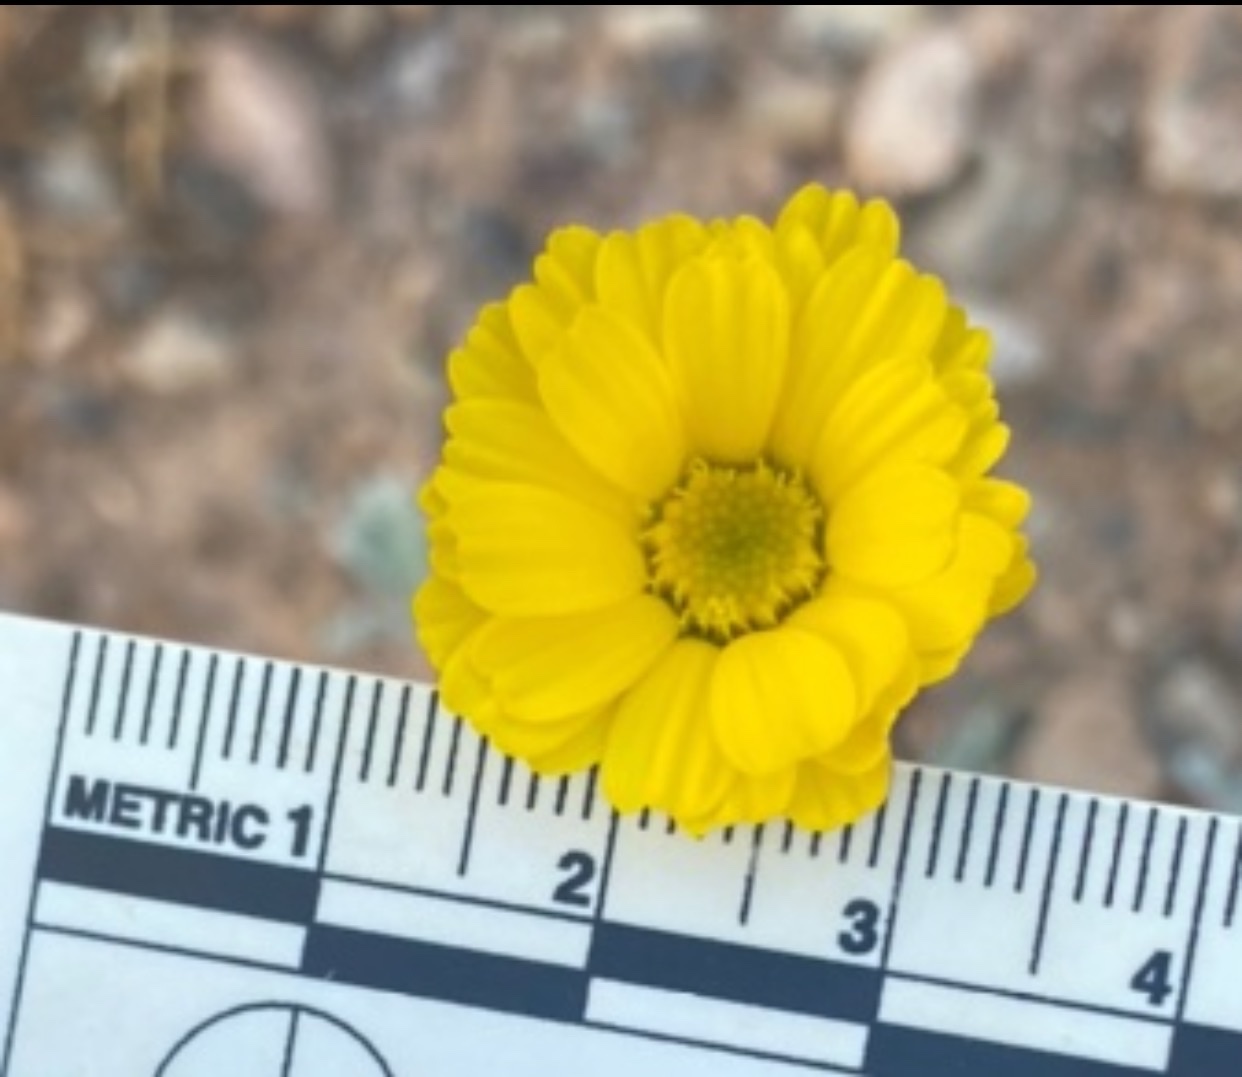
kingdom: Plantae
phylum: Tracheophyta
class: Magnoliopsida
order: Asterales
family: Asteraceae
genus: Baileya
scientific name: Baileya multiradiata
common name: Desert-marigold
